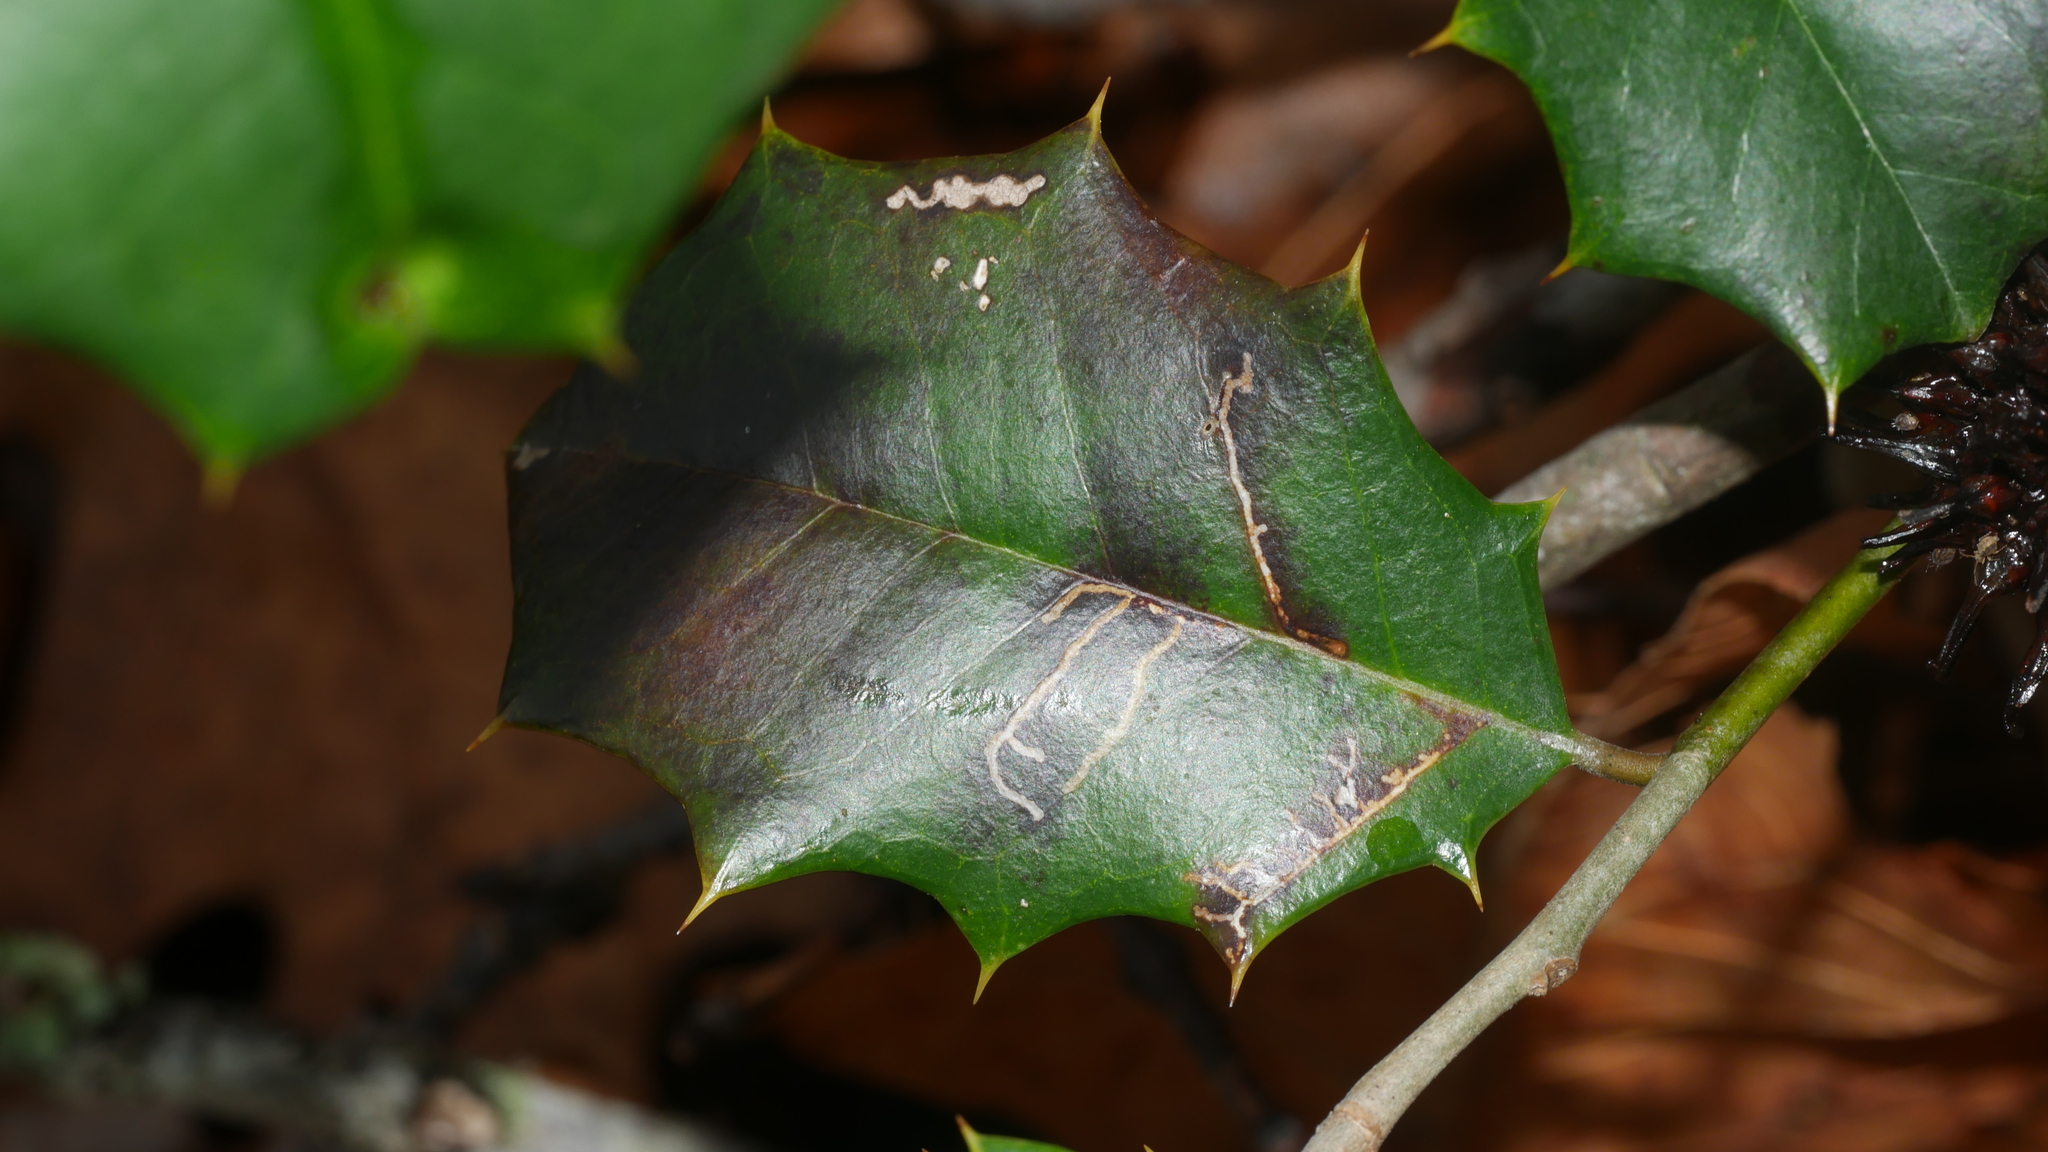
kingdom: Animalia
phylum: Arthropoda
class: Insecta
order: Lepidoptera
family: Tortricidae
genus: Rhopobota
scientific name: Rhopobota
